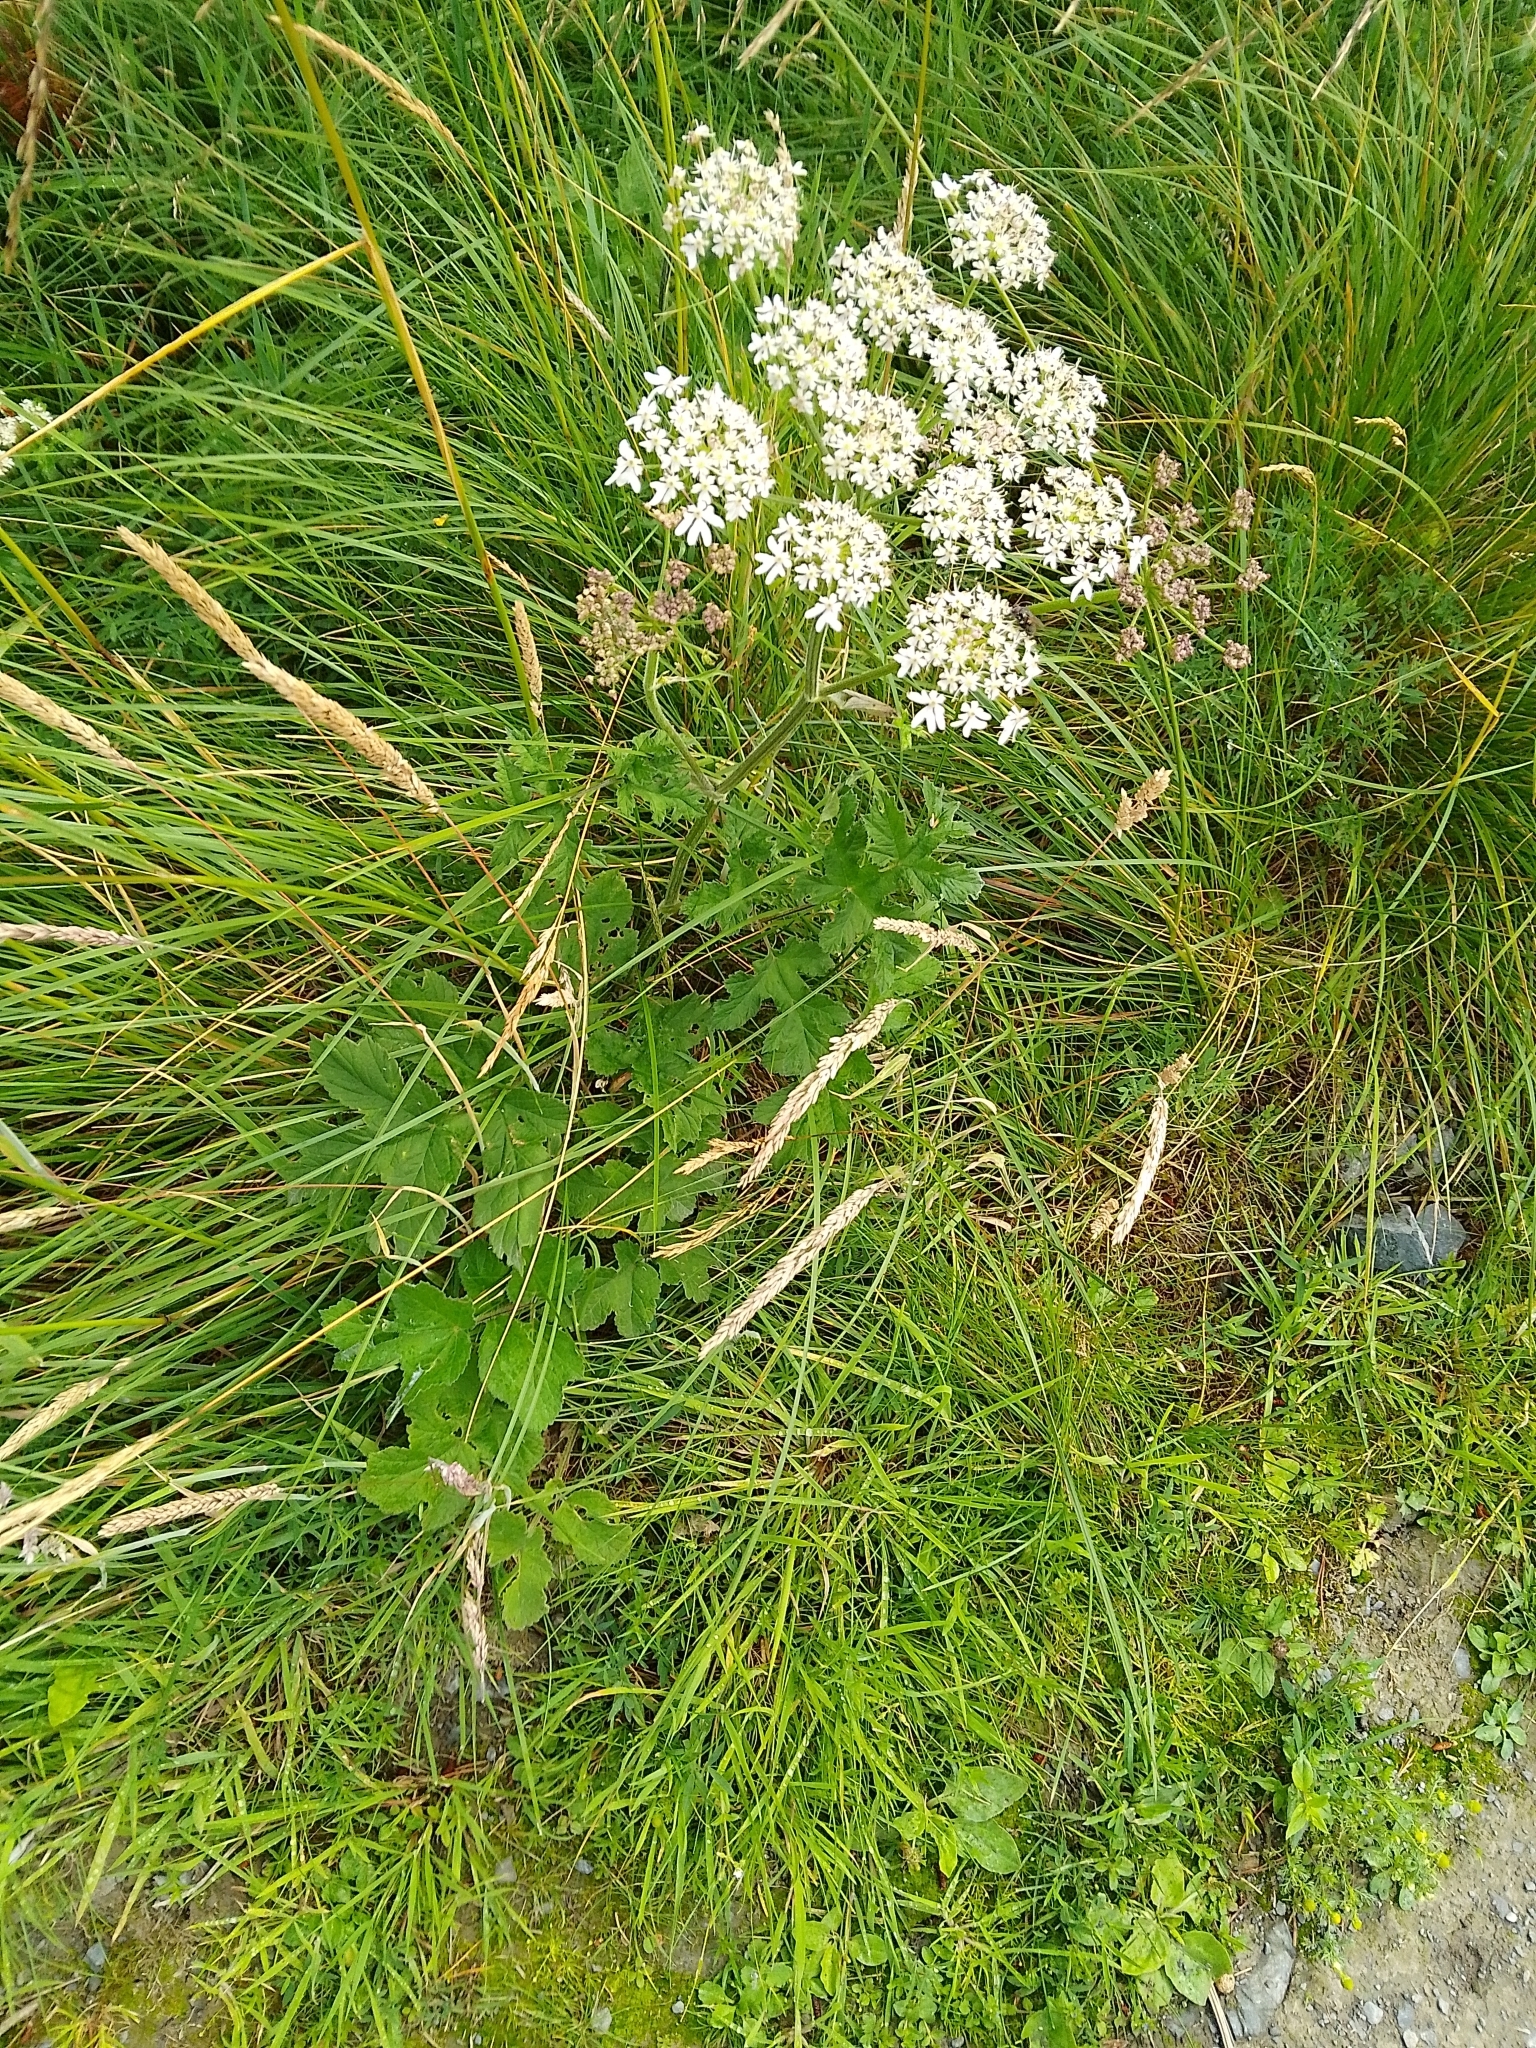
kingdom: Plantae
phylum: Tracheophyta
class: Magnoliopsida
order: Apiales
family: Apiaceae
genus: Heracleum
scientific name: Heracleum sphondylium
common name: Hogweed
